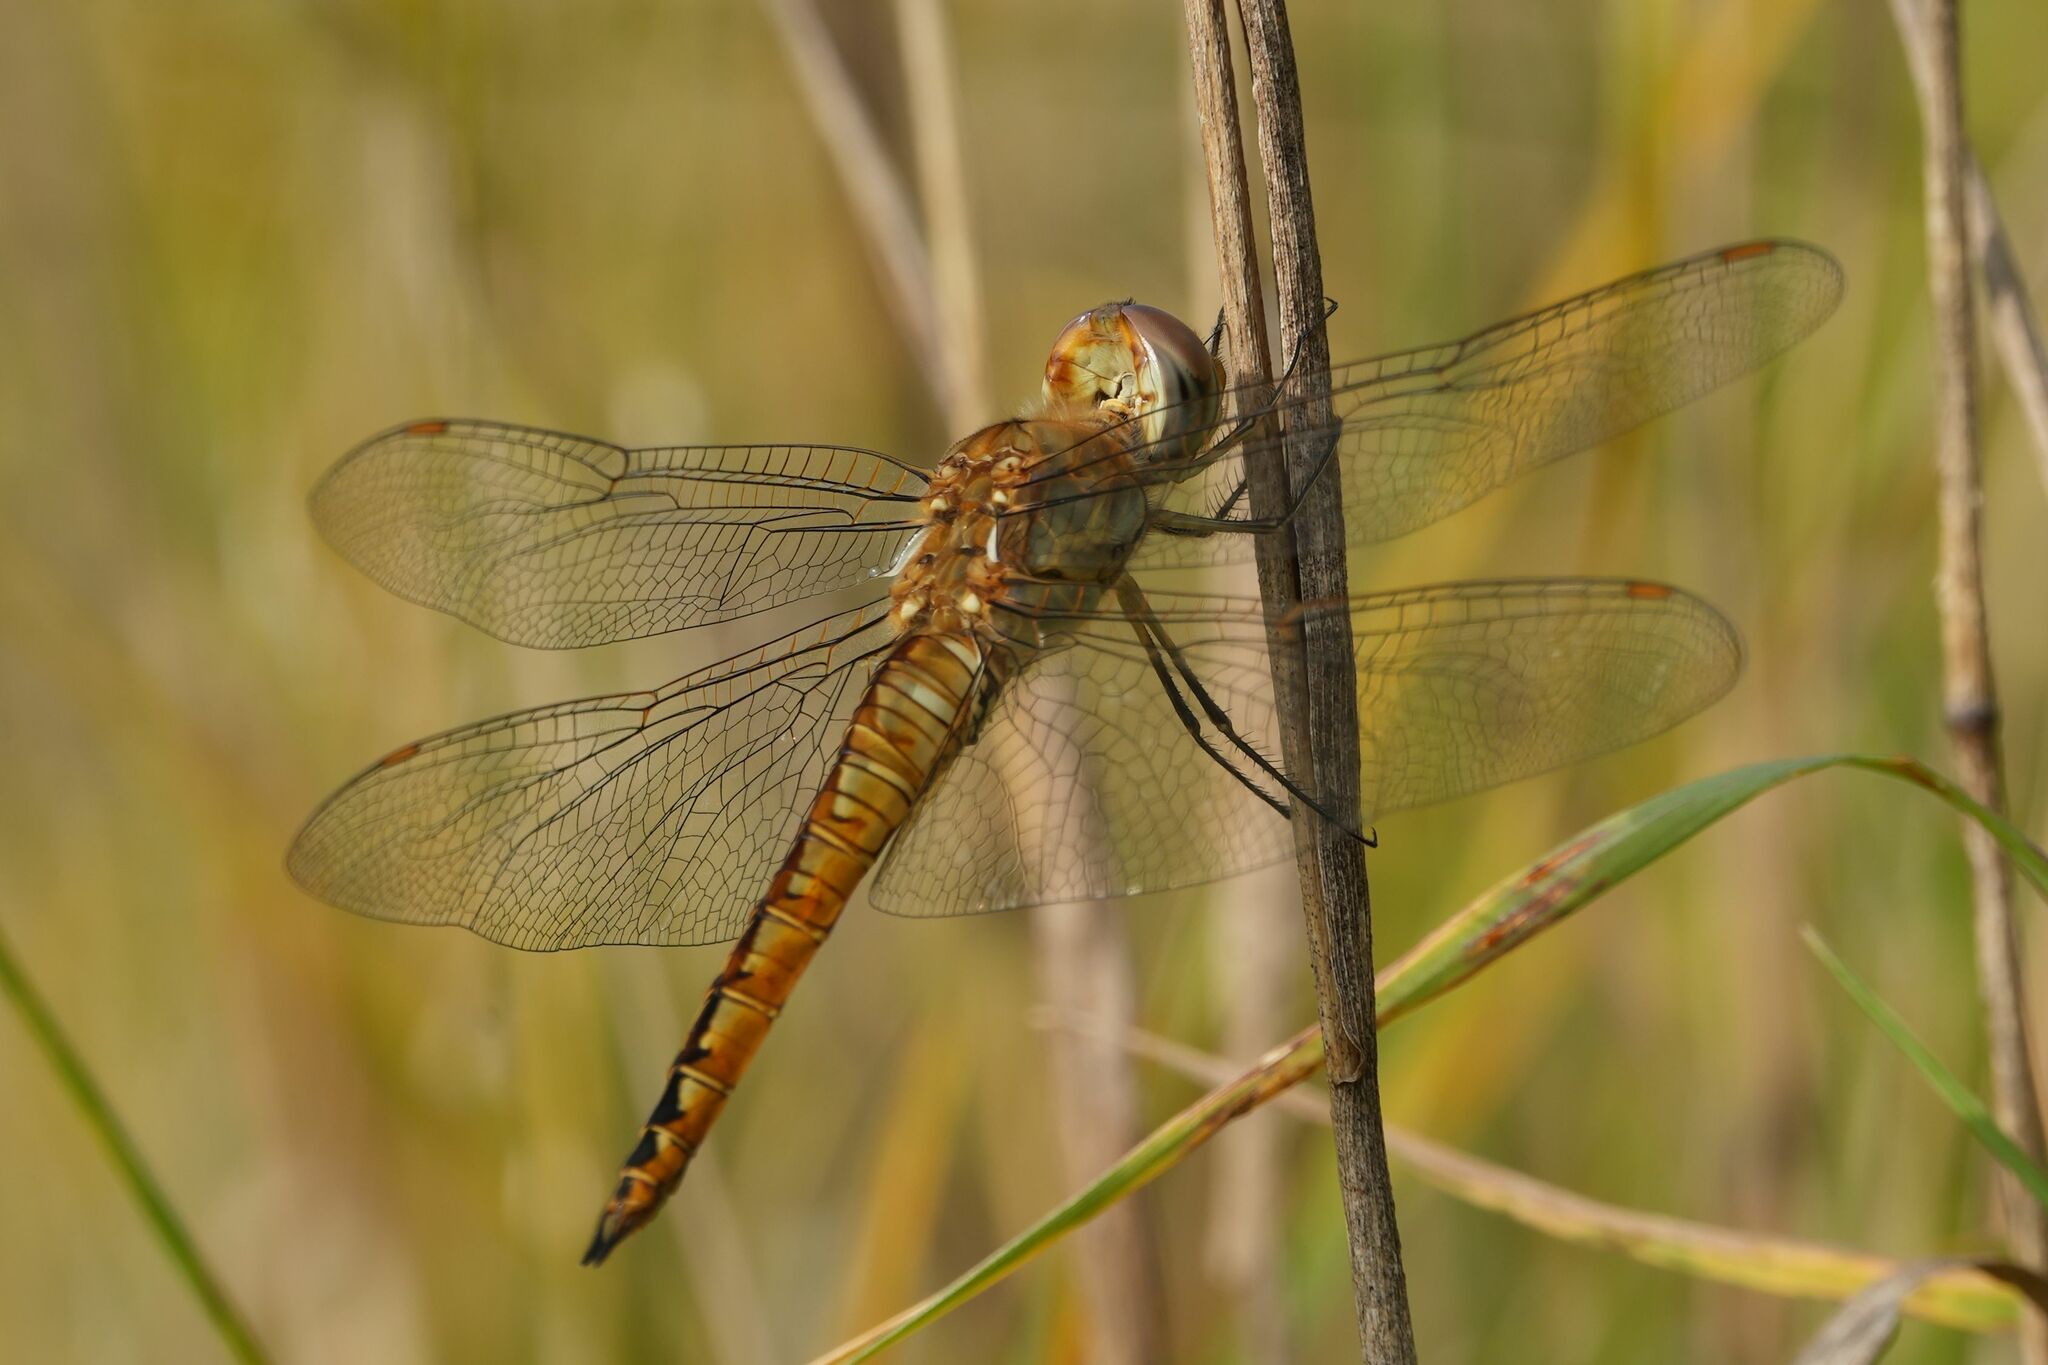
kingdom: Animalia
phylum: Arthropoda
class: Insecta
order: Odonata
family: Libellulidae
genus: Pantala
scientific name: Pantala flavescens
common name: Wandering glider
